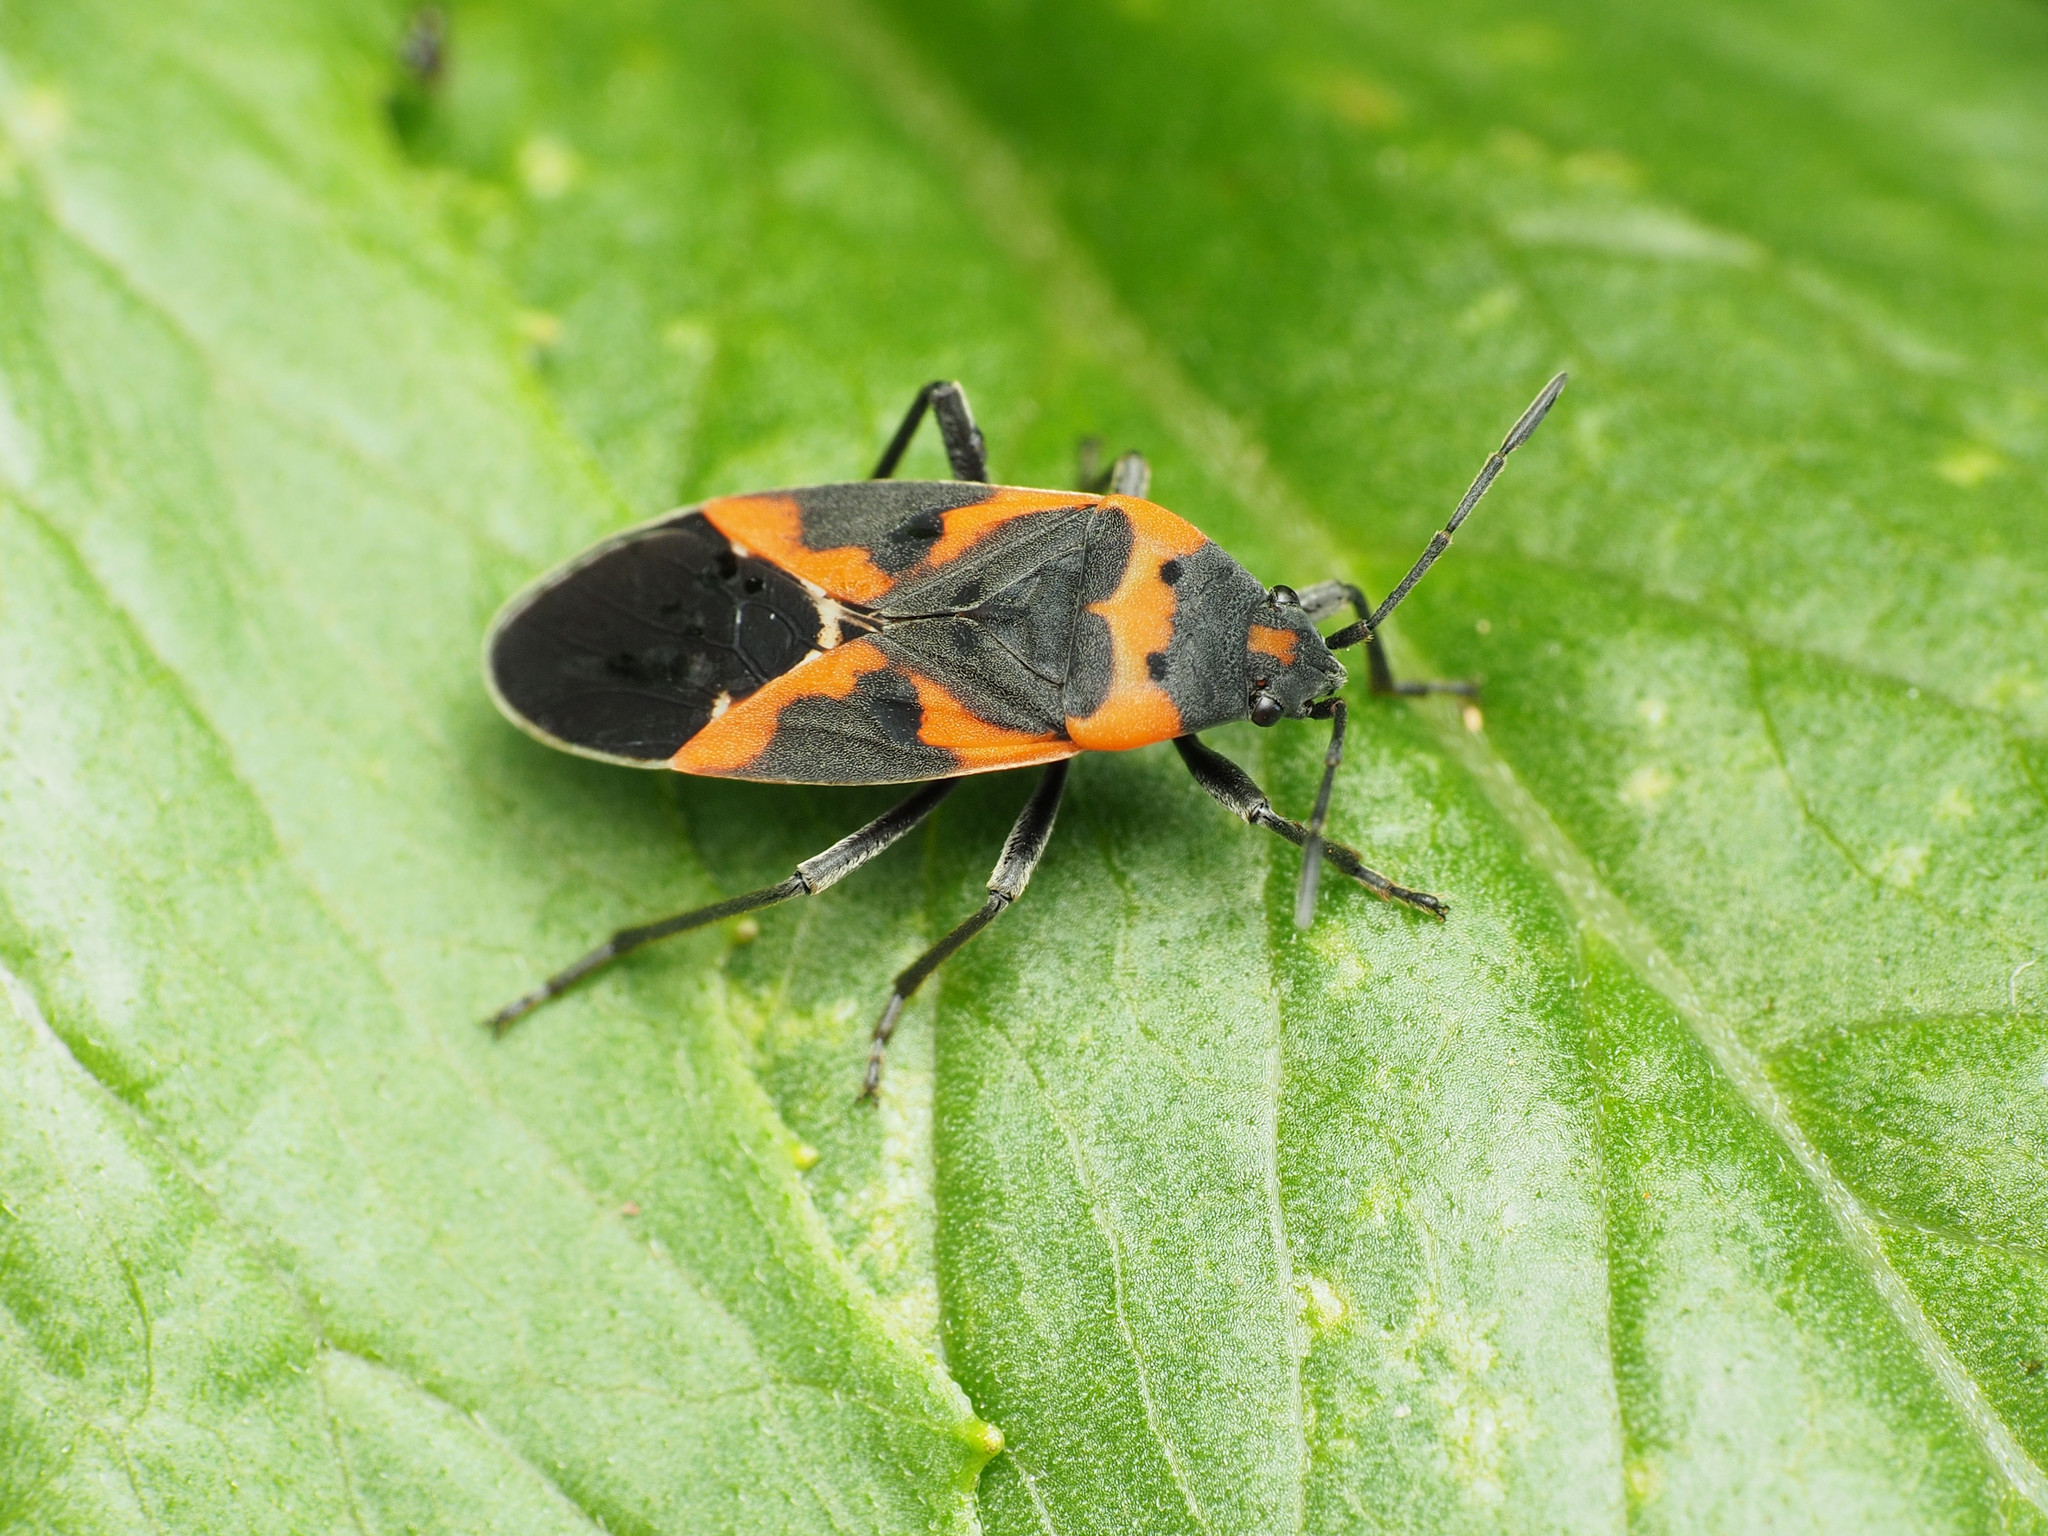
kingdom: Animalia
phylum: Arthropoda
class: Insecta
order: Hemiptera
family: Lygaeidae
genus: Lygaeus
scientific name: Lygaeus kalmii
